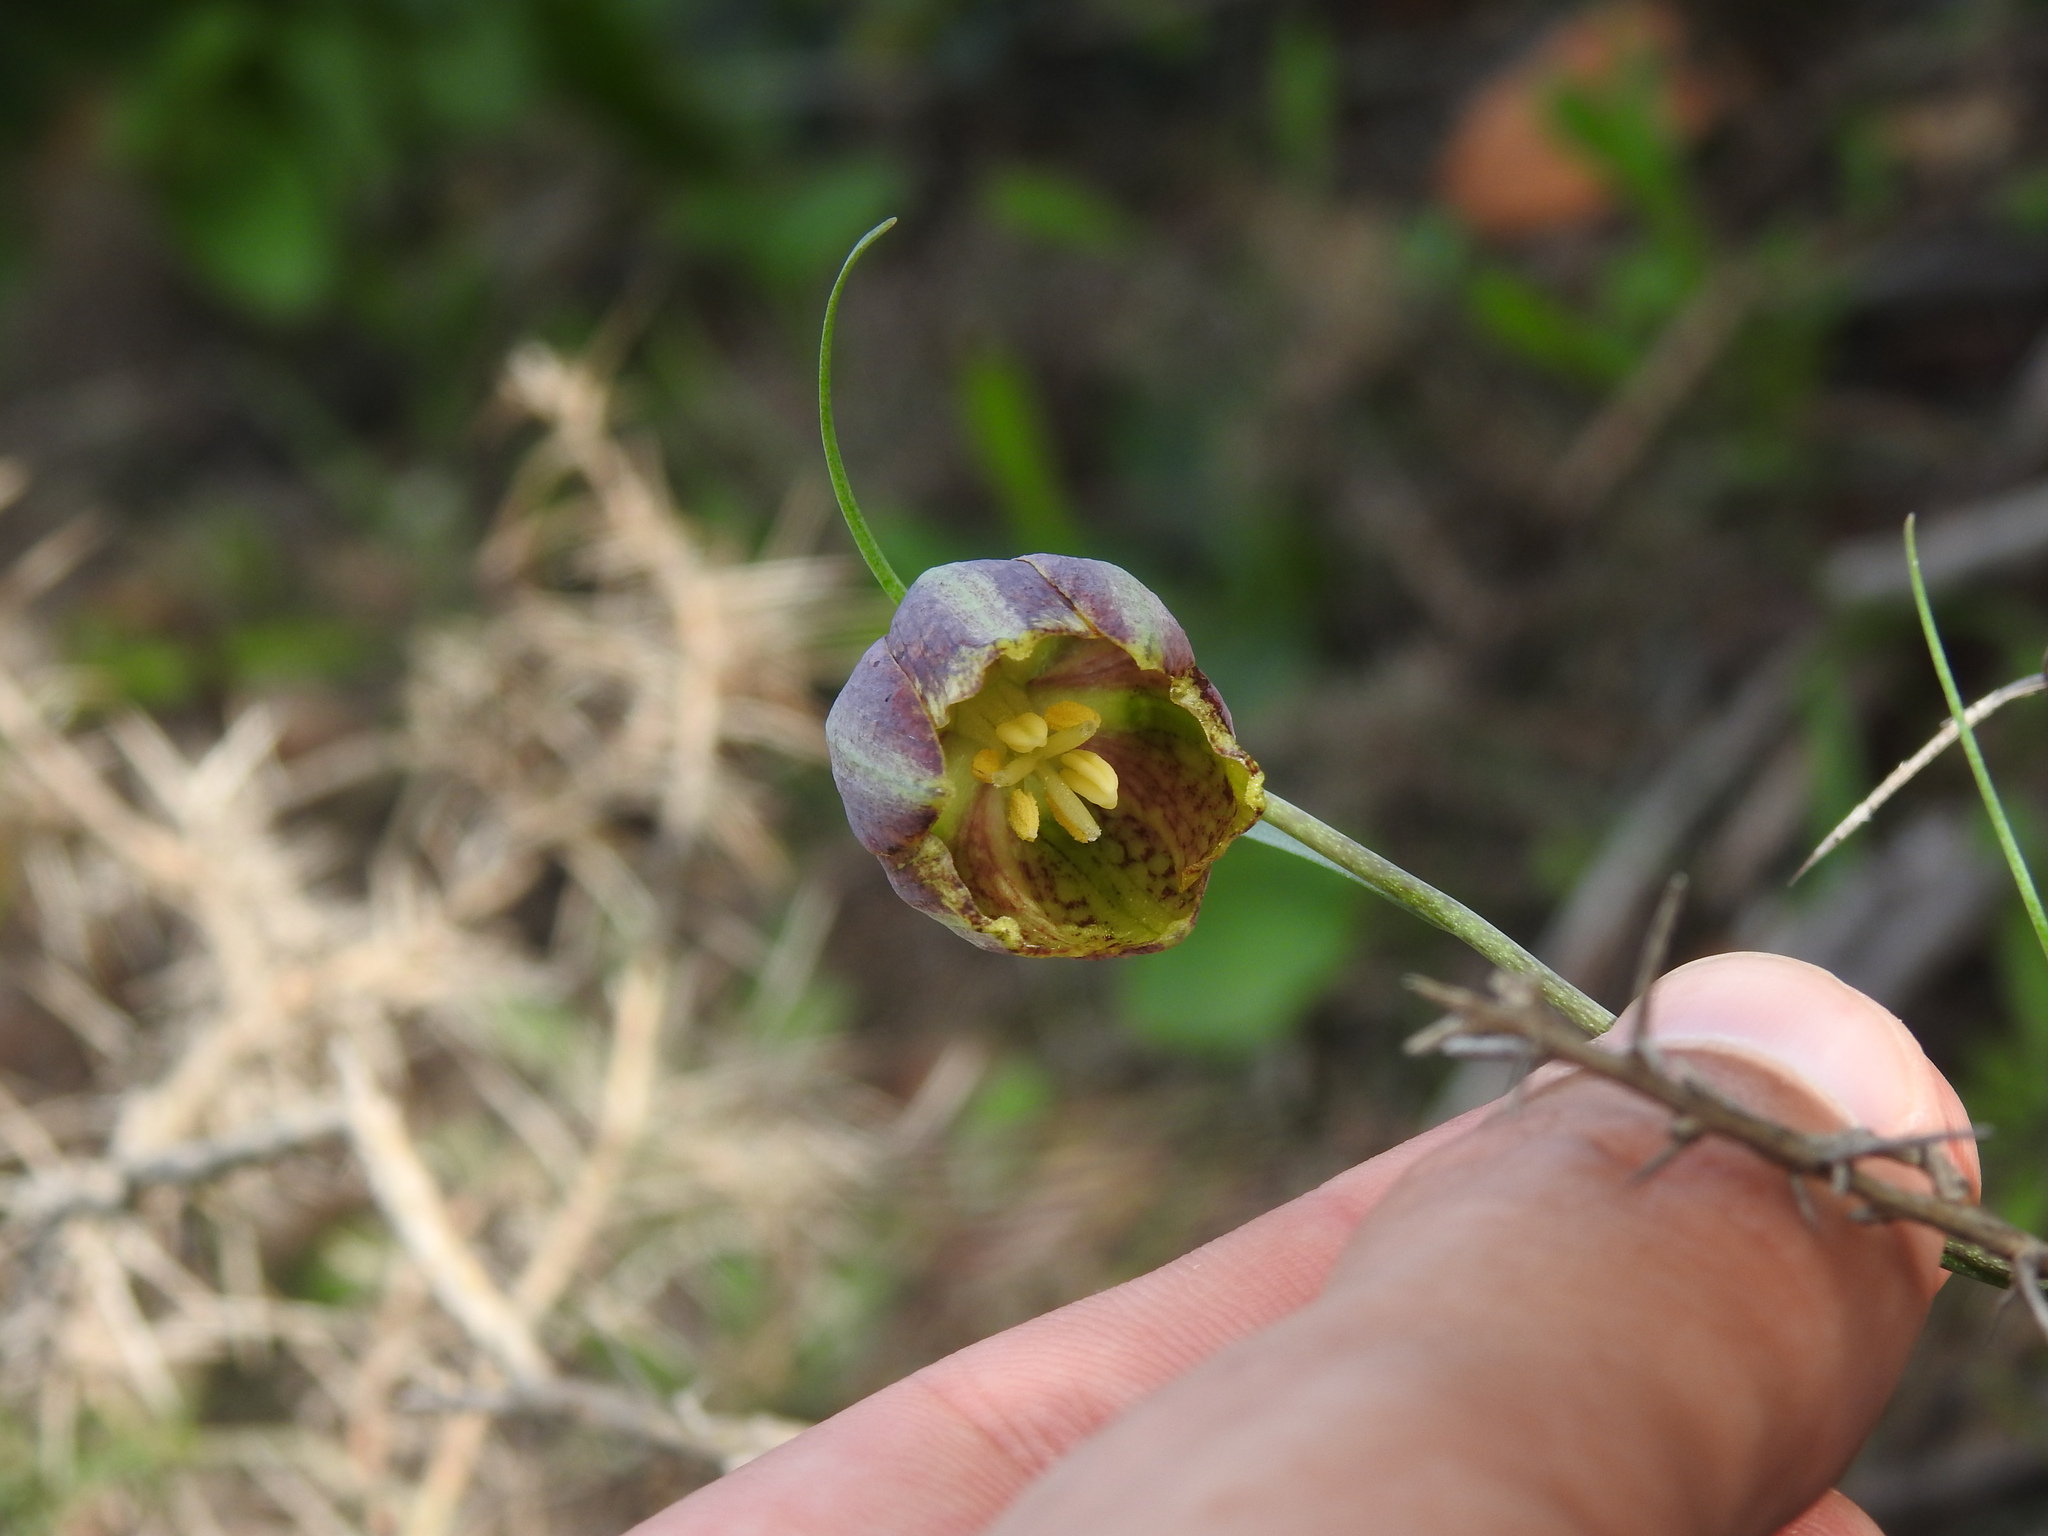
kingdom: Plantae
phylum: Tracheophyta
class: Liliopsida
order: Liliales
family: Liliaceae
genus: Fritillaria
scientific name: Fritillaria lusitanica
